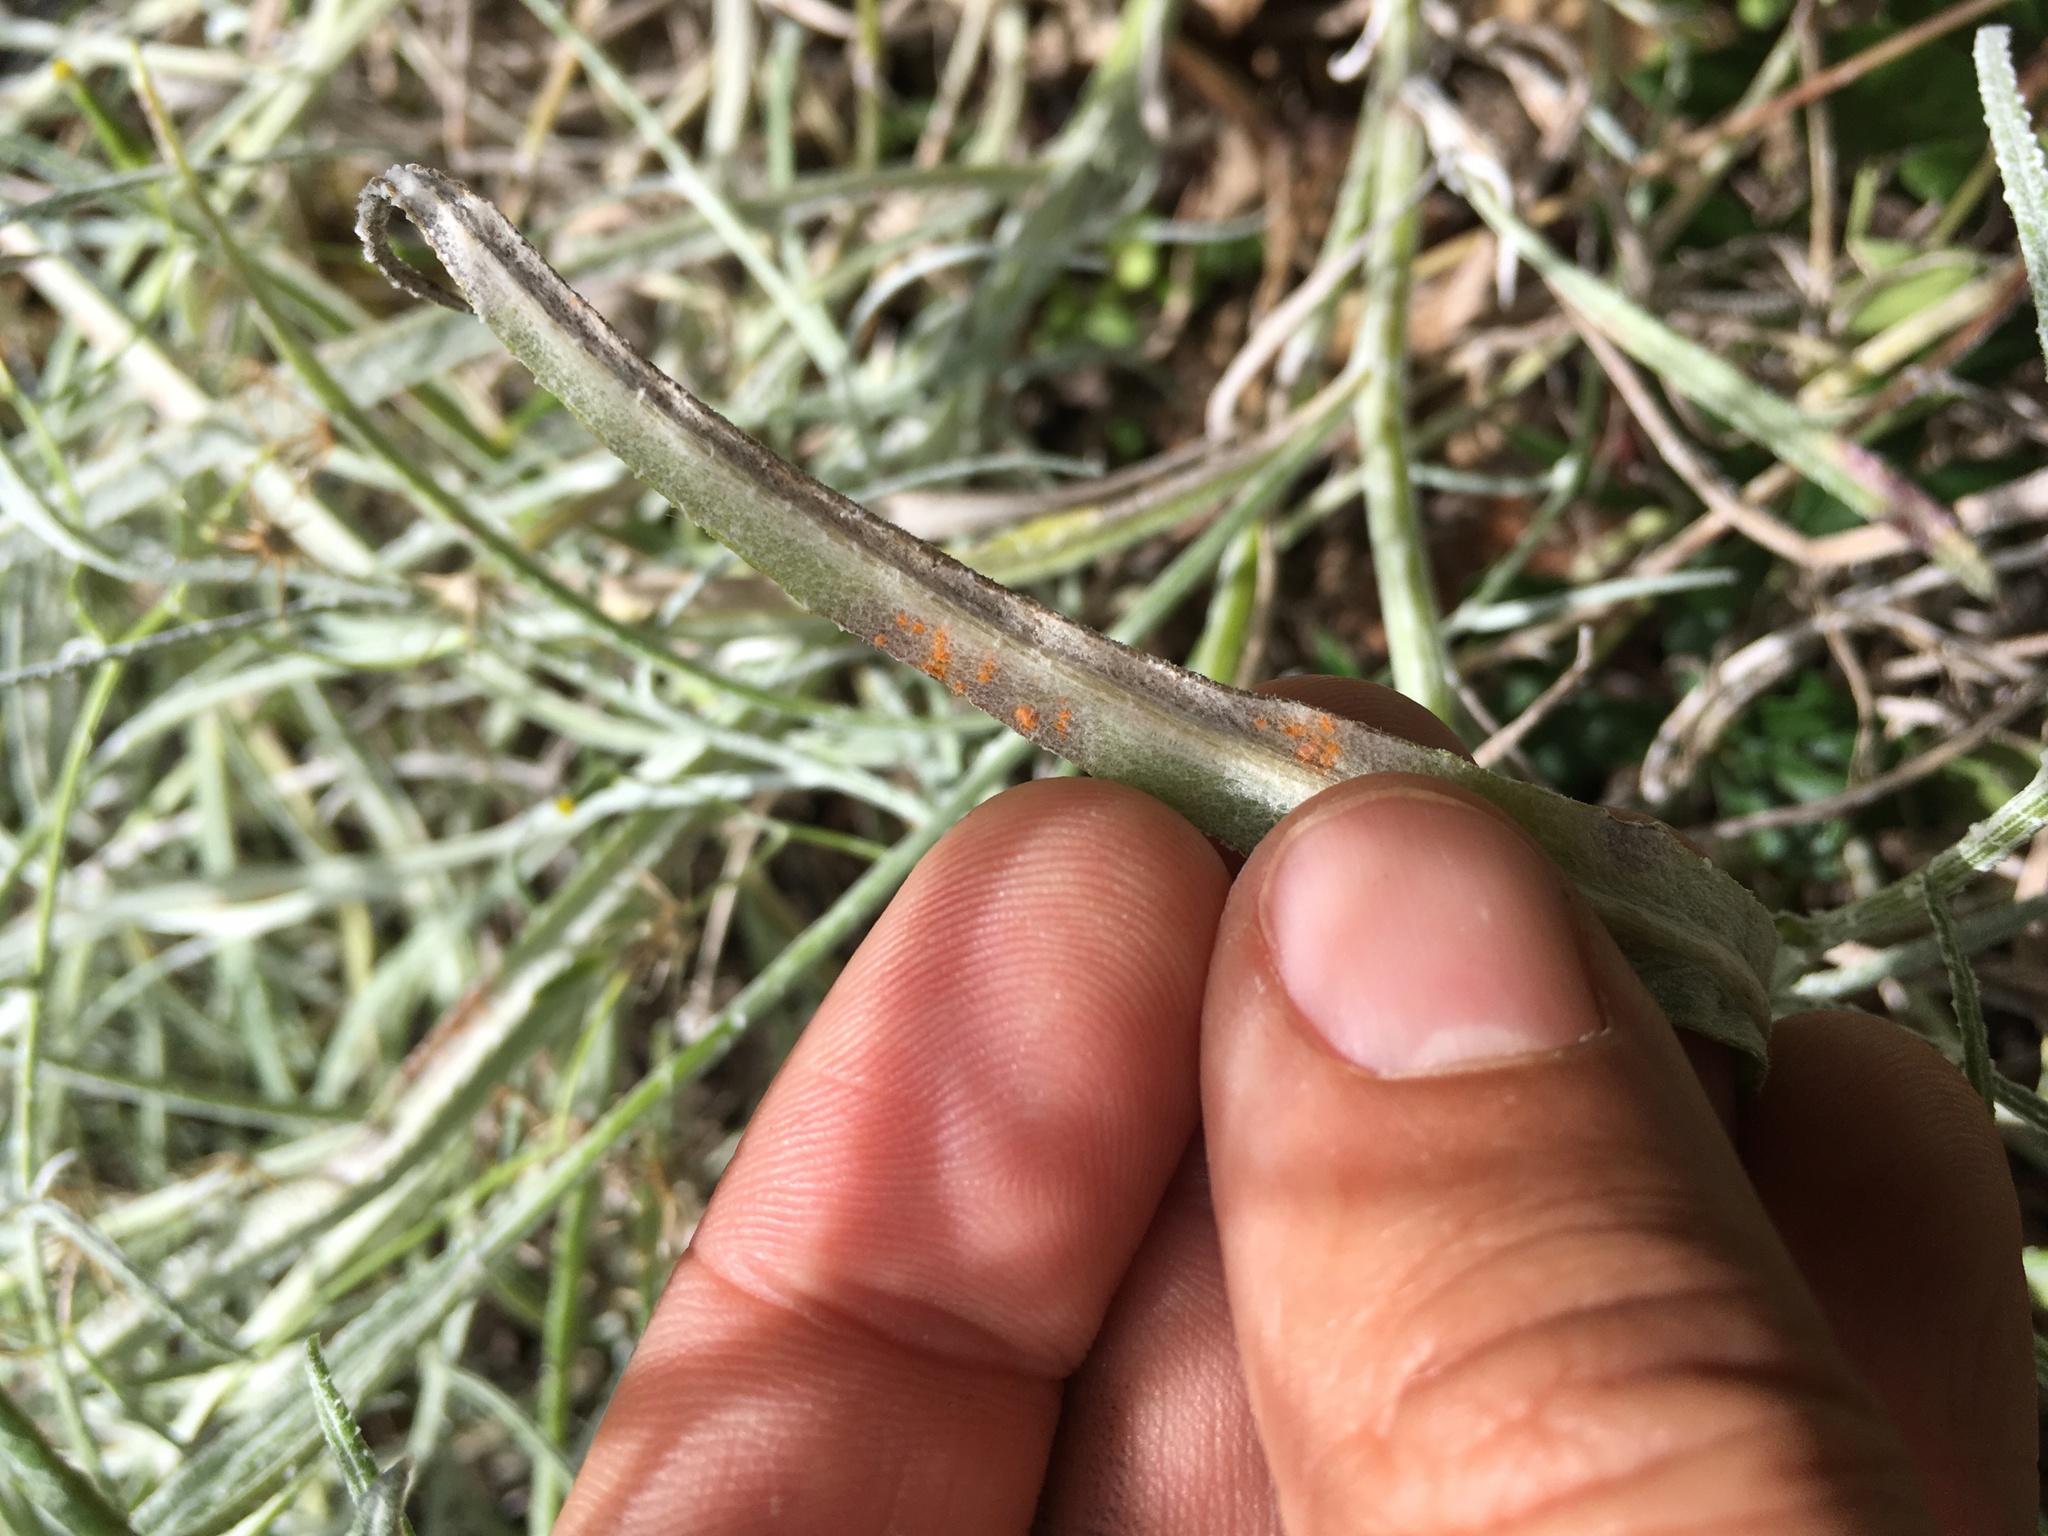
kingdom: Fungi
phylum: Basidiomycota
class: Pucciniomycetes
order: Pucciniales
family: Coleosporiaceae
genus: Coleosporium
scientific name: Coleosporium tussilaginis
